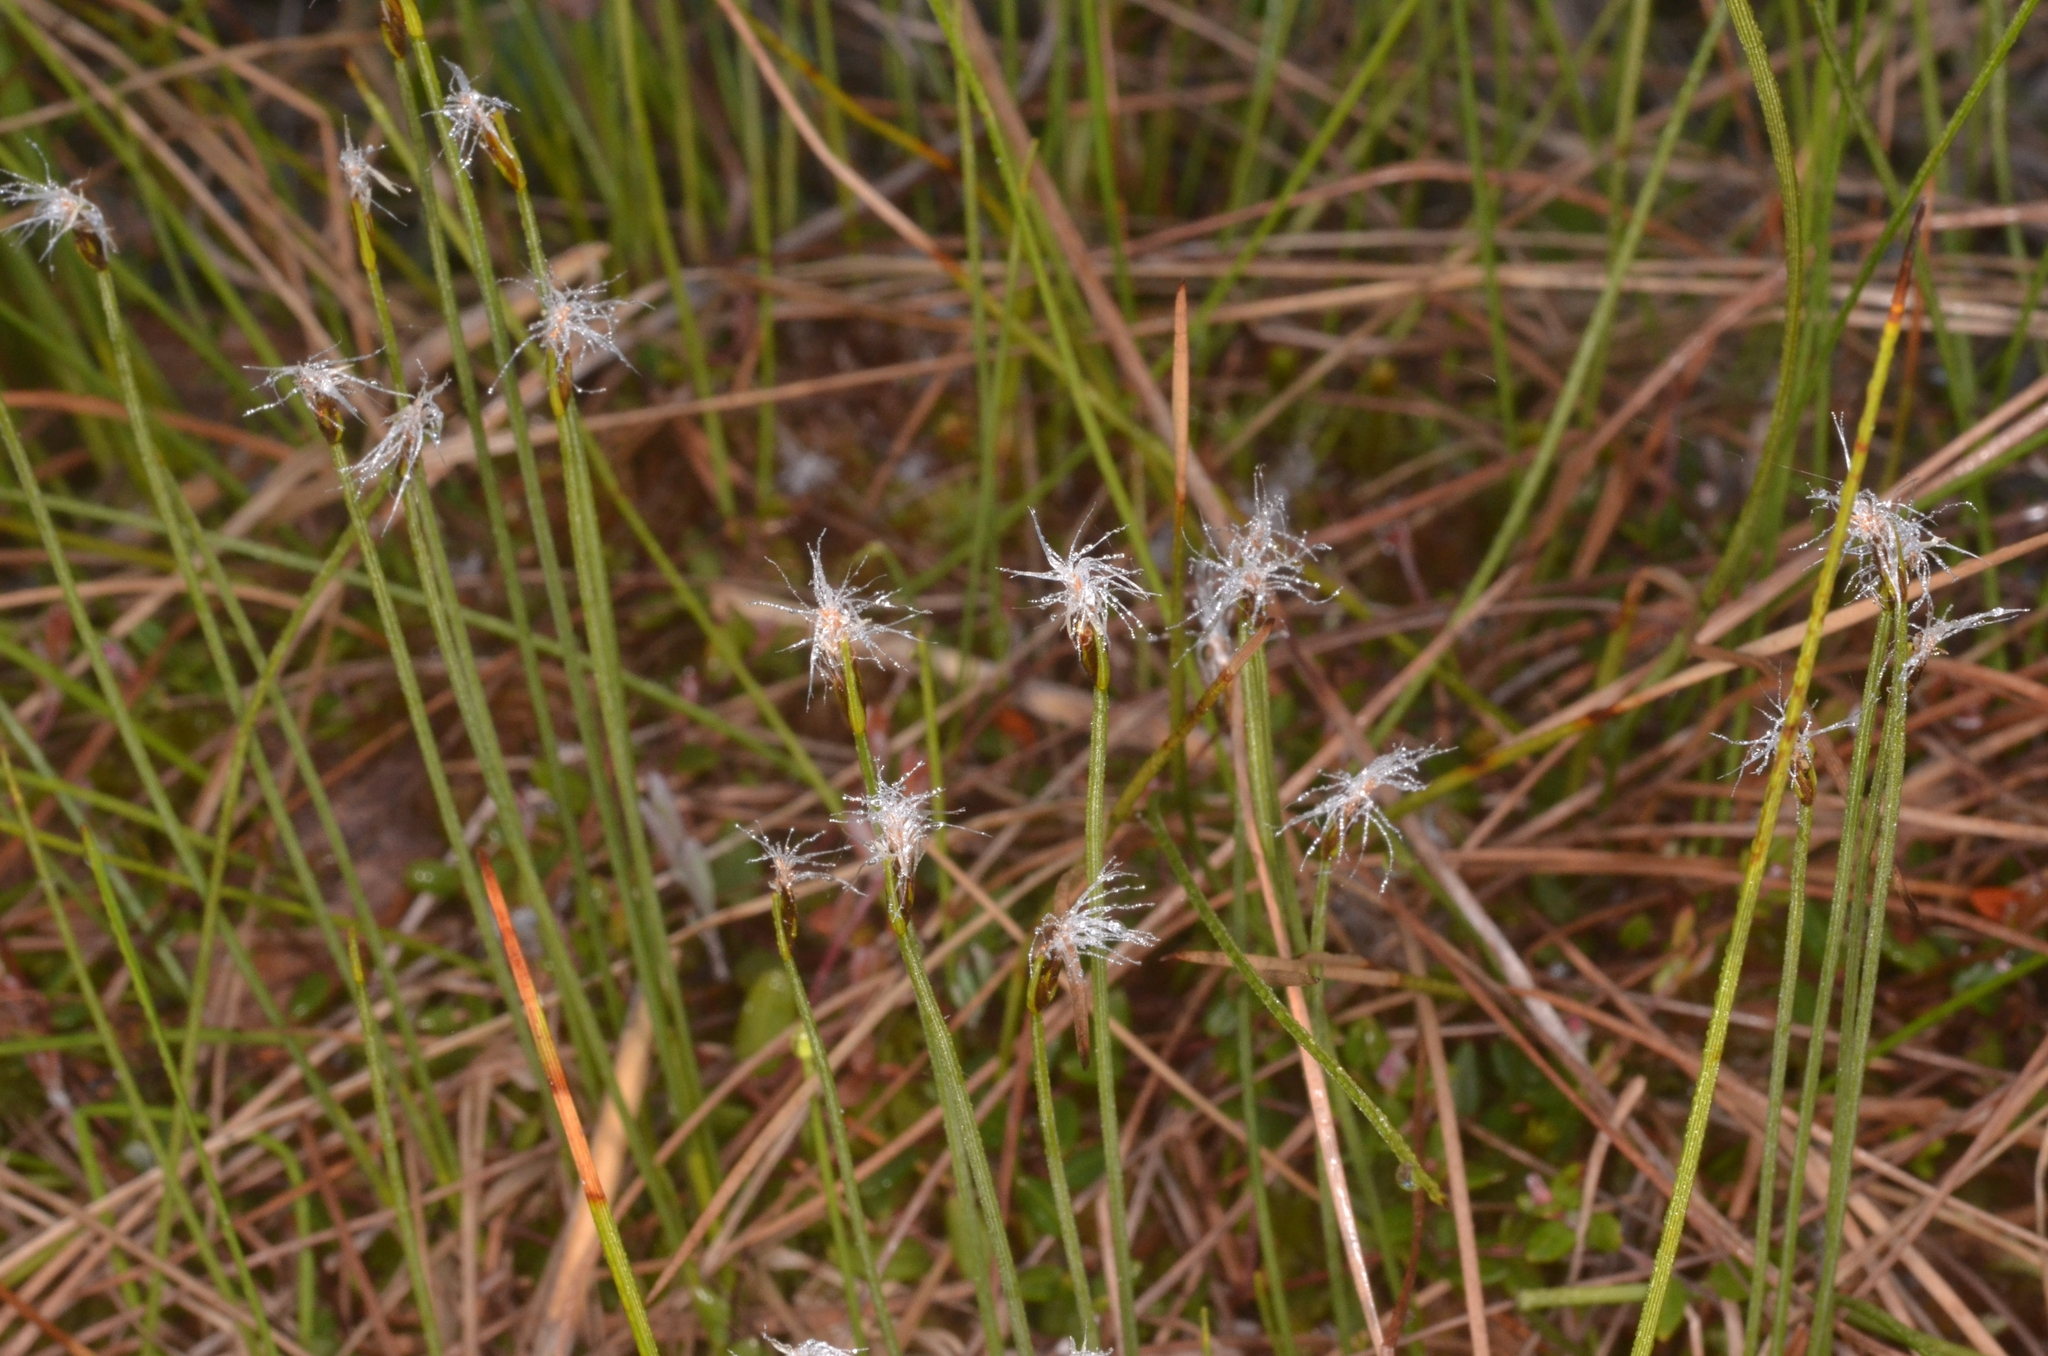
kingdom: Plantae
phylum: Tracheophyta
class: Liliopsida
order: Poales
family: Cyperaceae
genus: Trichophorum
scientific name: Trichophorum alpinum
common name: Alpine bulrush
